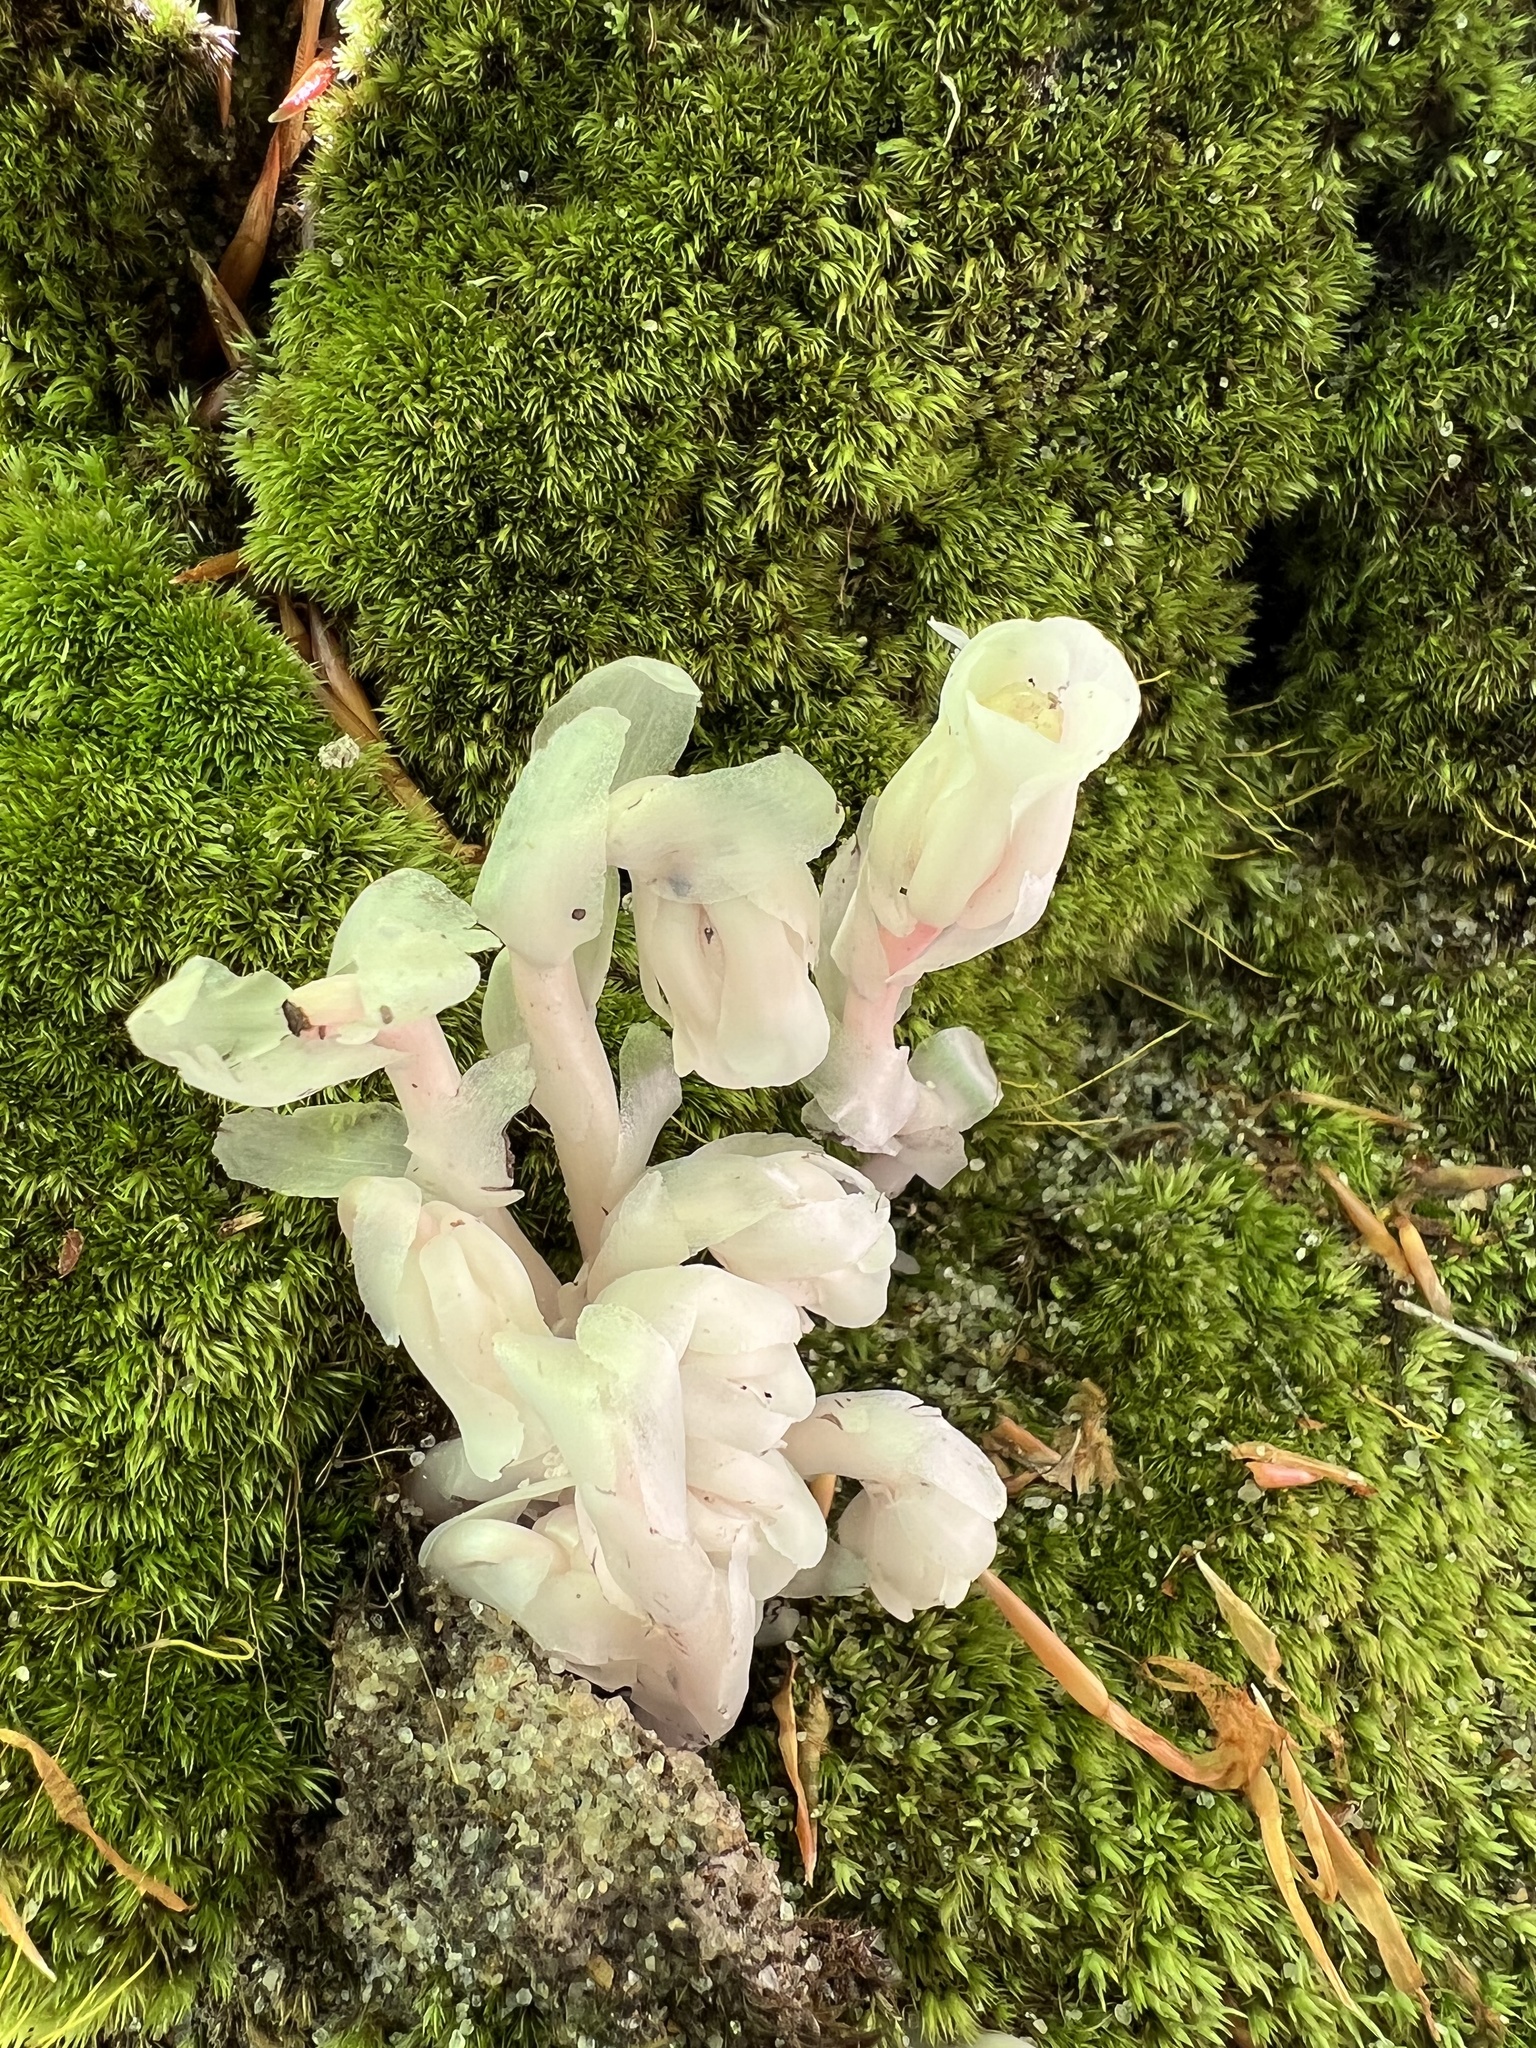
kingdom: Plantae
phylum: Tracheophyta
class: Magnoliopsida
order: Ericales
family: Ericaceae
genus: Monotropa
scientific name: Monotropa uniflora
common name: Convulsion root
